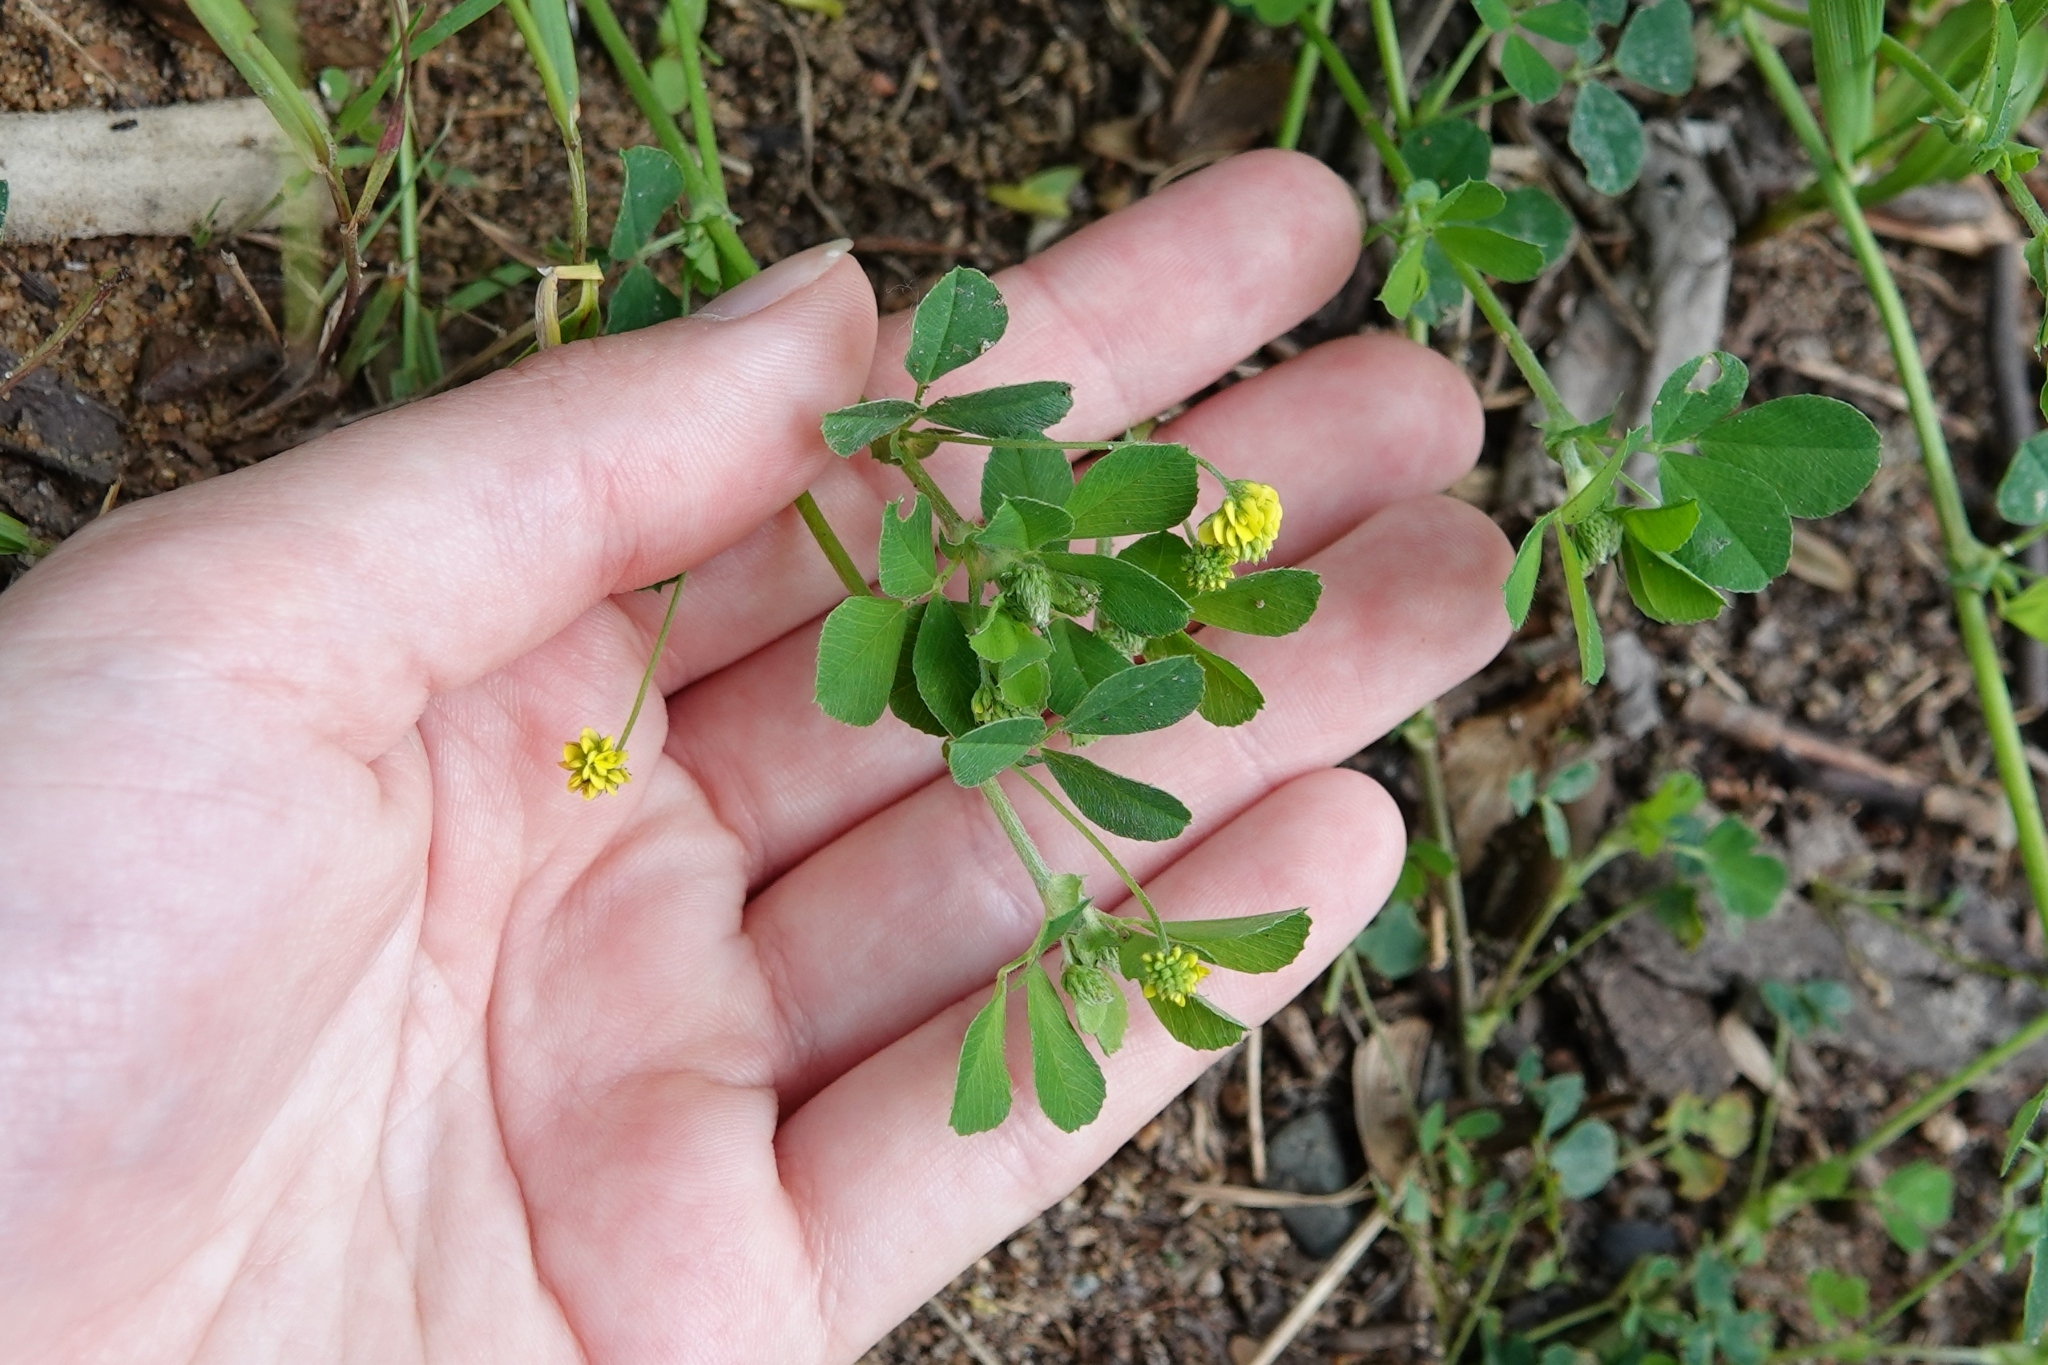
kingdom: Plantae
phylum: Tracheophyta
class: Magnoliopsida
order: Fabales
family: Fabaceae
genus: Medicago
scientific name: Medicago lupulina
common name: Black medick
